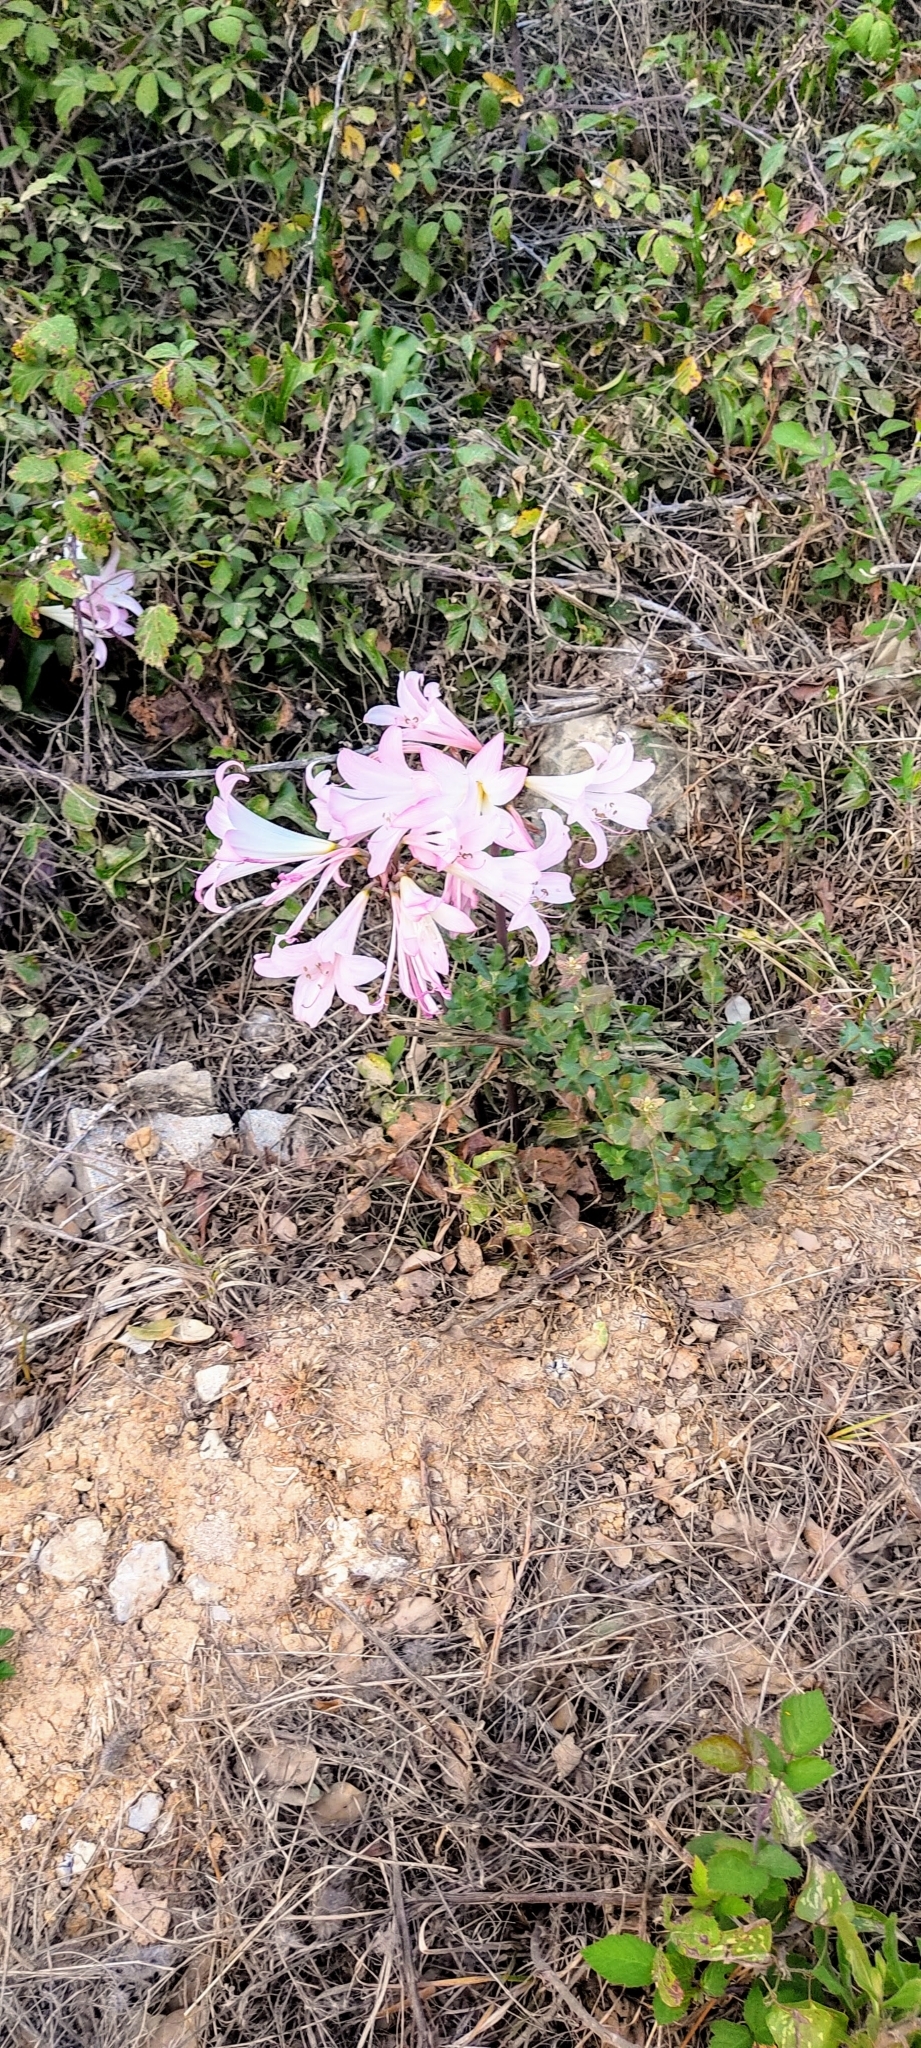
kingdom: Plantae
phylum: Tracheophyta
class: Liliopsida
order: Asparagales
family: Amaryllidaceae
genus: Amaryllis
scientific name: Amaryllis belladonna
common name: Jersey lily
